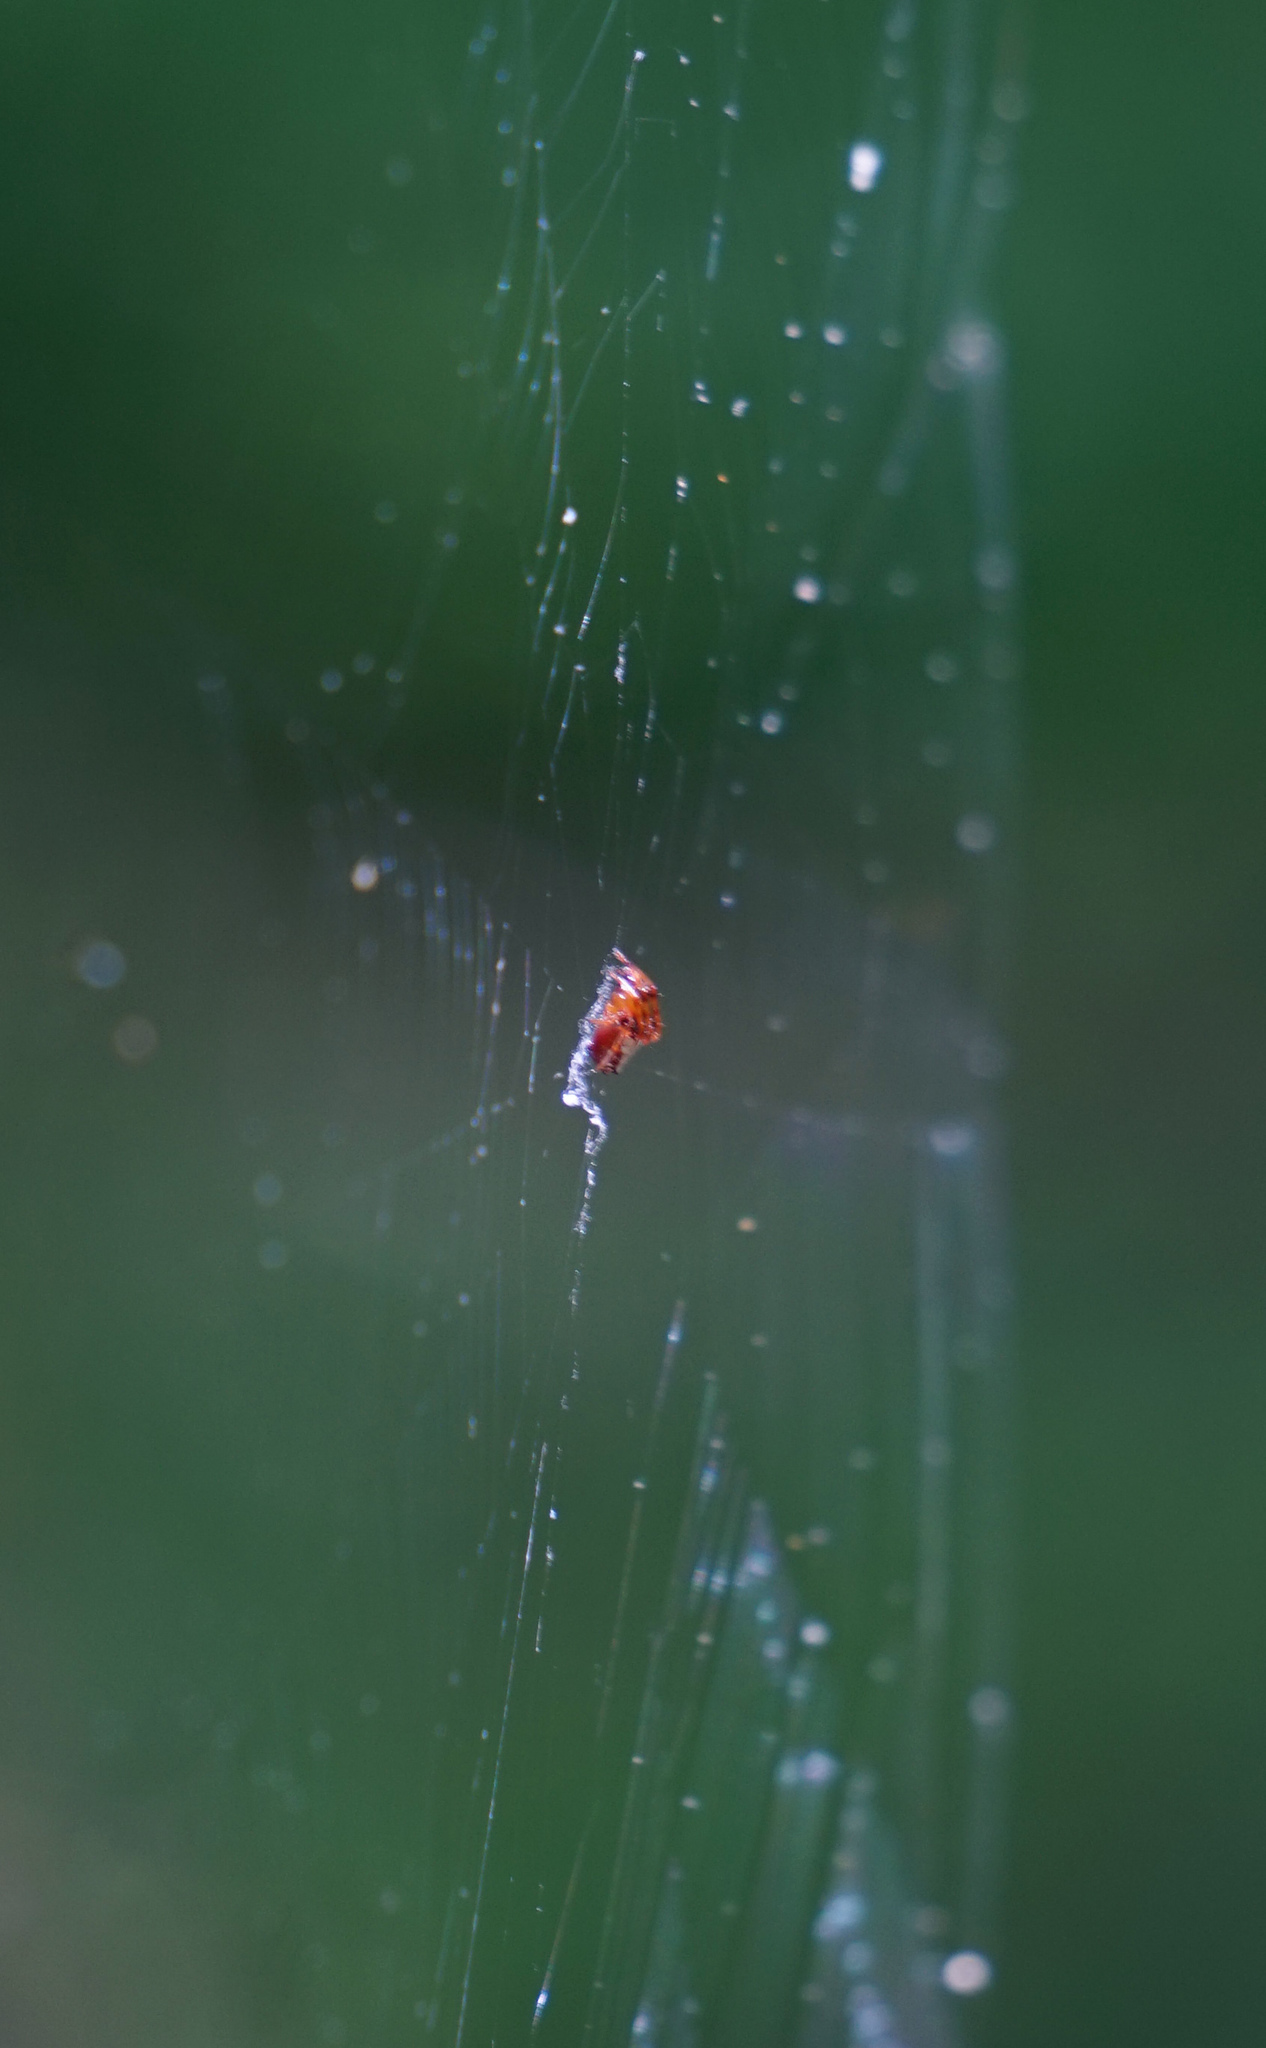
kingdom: Animalia
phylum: Arthropoda
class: Arachnida
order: Araneae
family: Araneidae
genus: Verrucosa
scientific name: Verrucosa arenata
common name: Orb weavers
